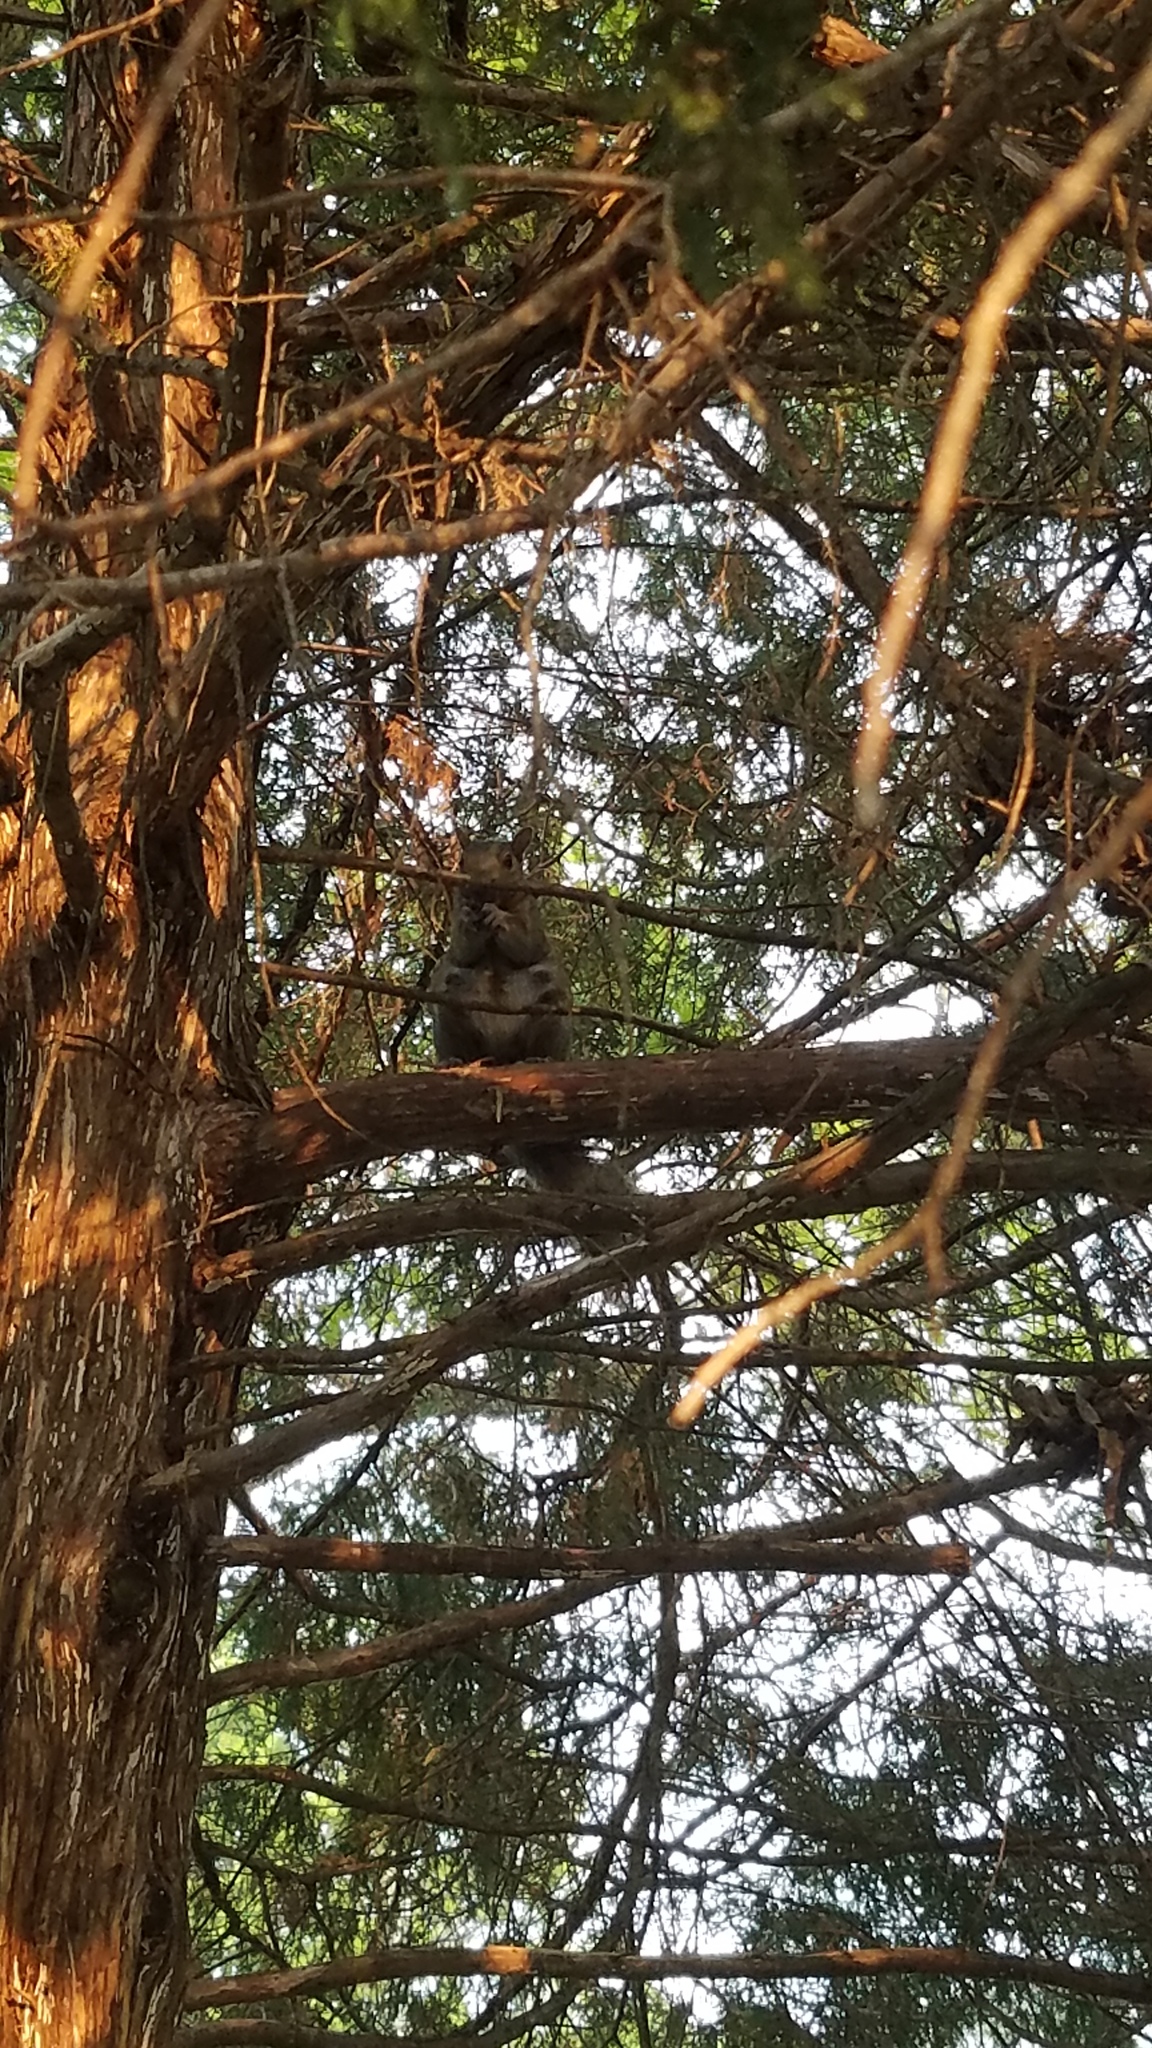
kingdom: Animalia
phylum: Chordata
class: Mammalia
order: Rodentia
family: Sciuridae
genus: Sciurus
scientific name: Sciurus carolinensis
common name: Eastern gray squirrel
